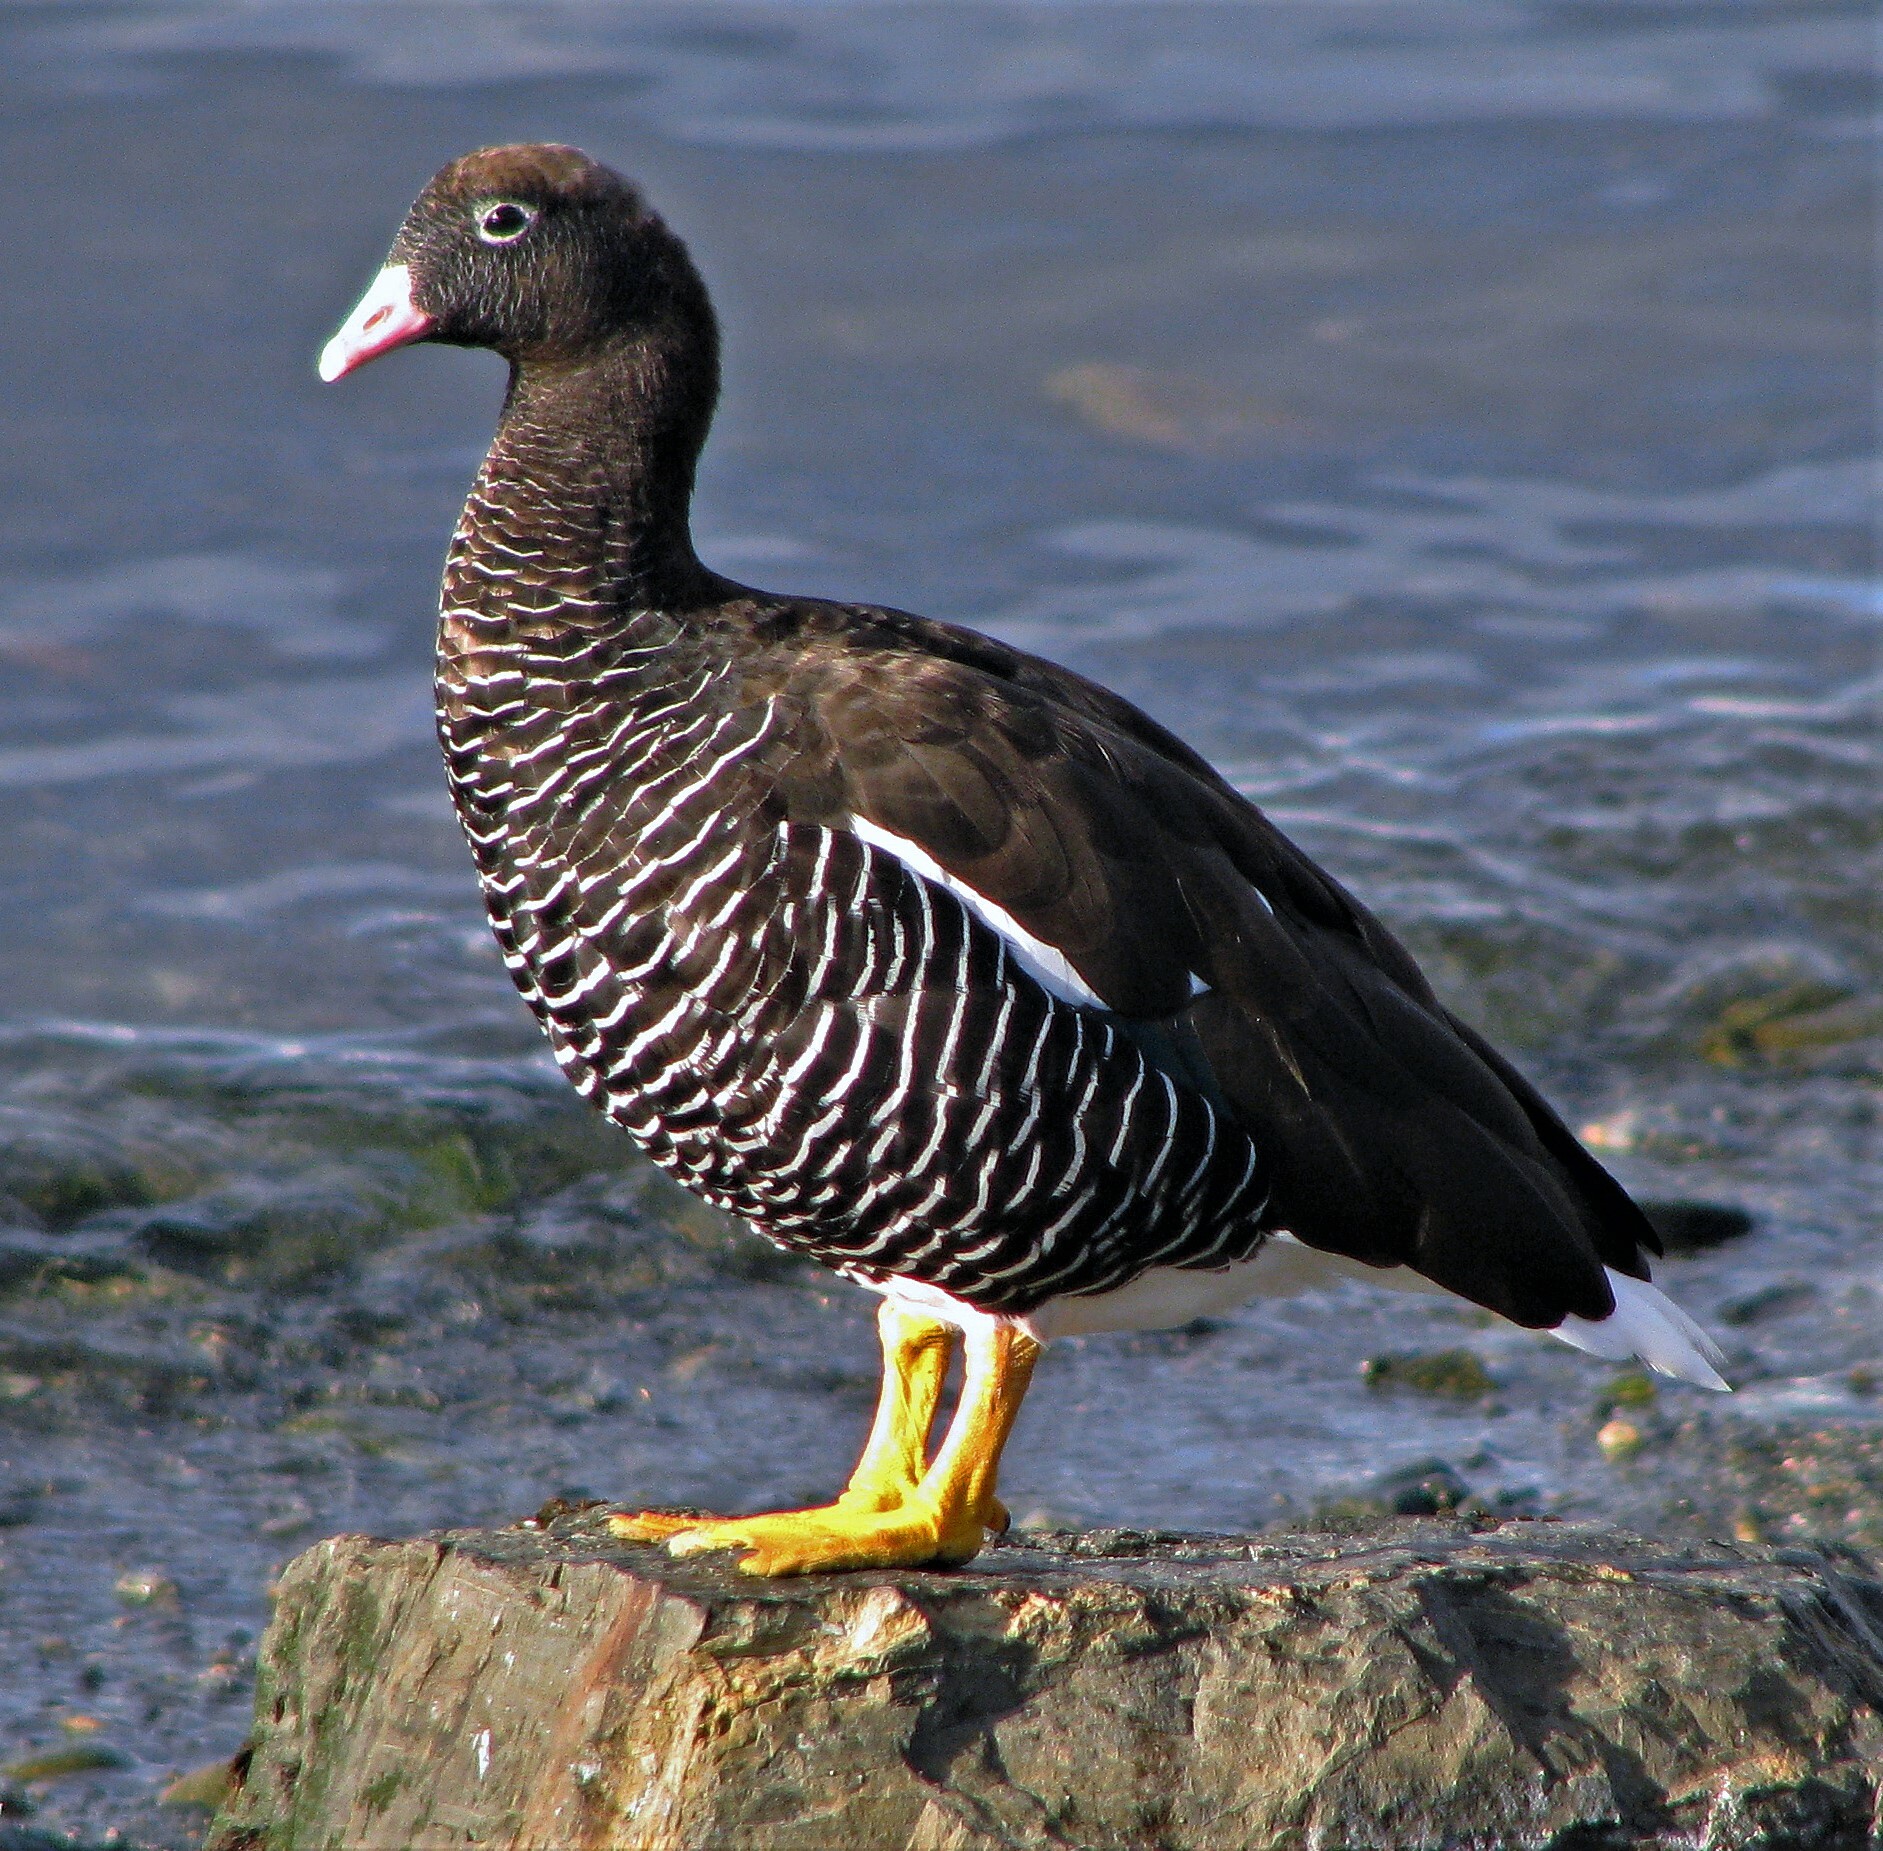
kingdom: Animalia
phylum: Chordata
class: Aves
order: Anseriformes
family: Anatidae
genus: Chloephaga
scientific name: Chloephaga hybrida
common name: Kelp goose
